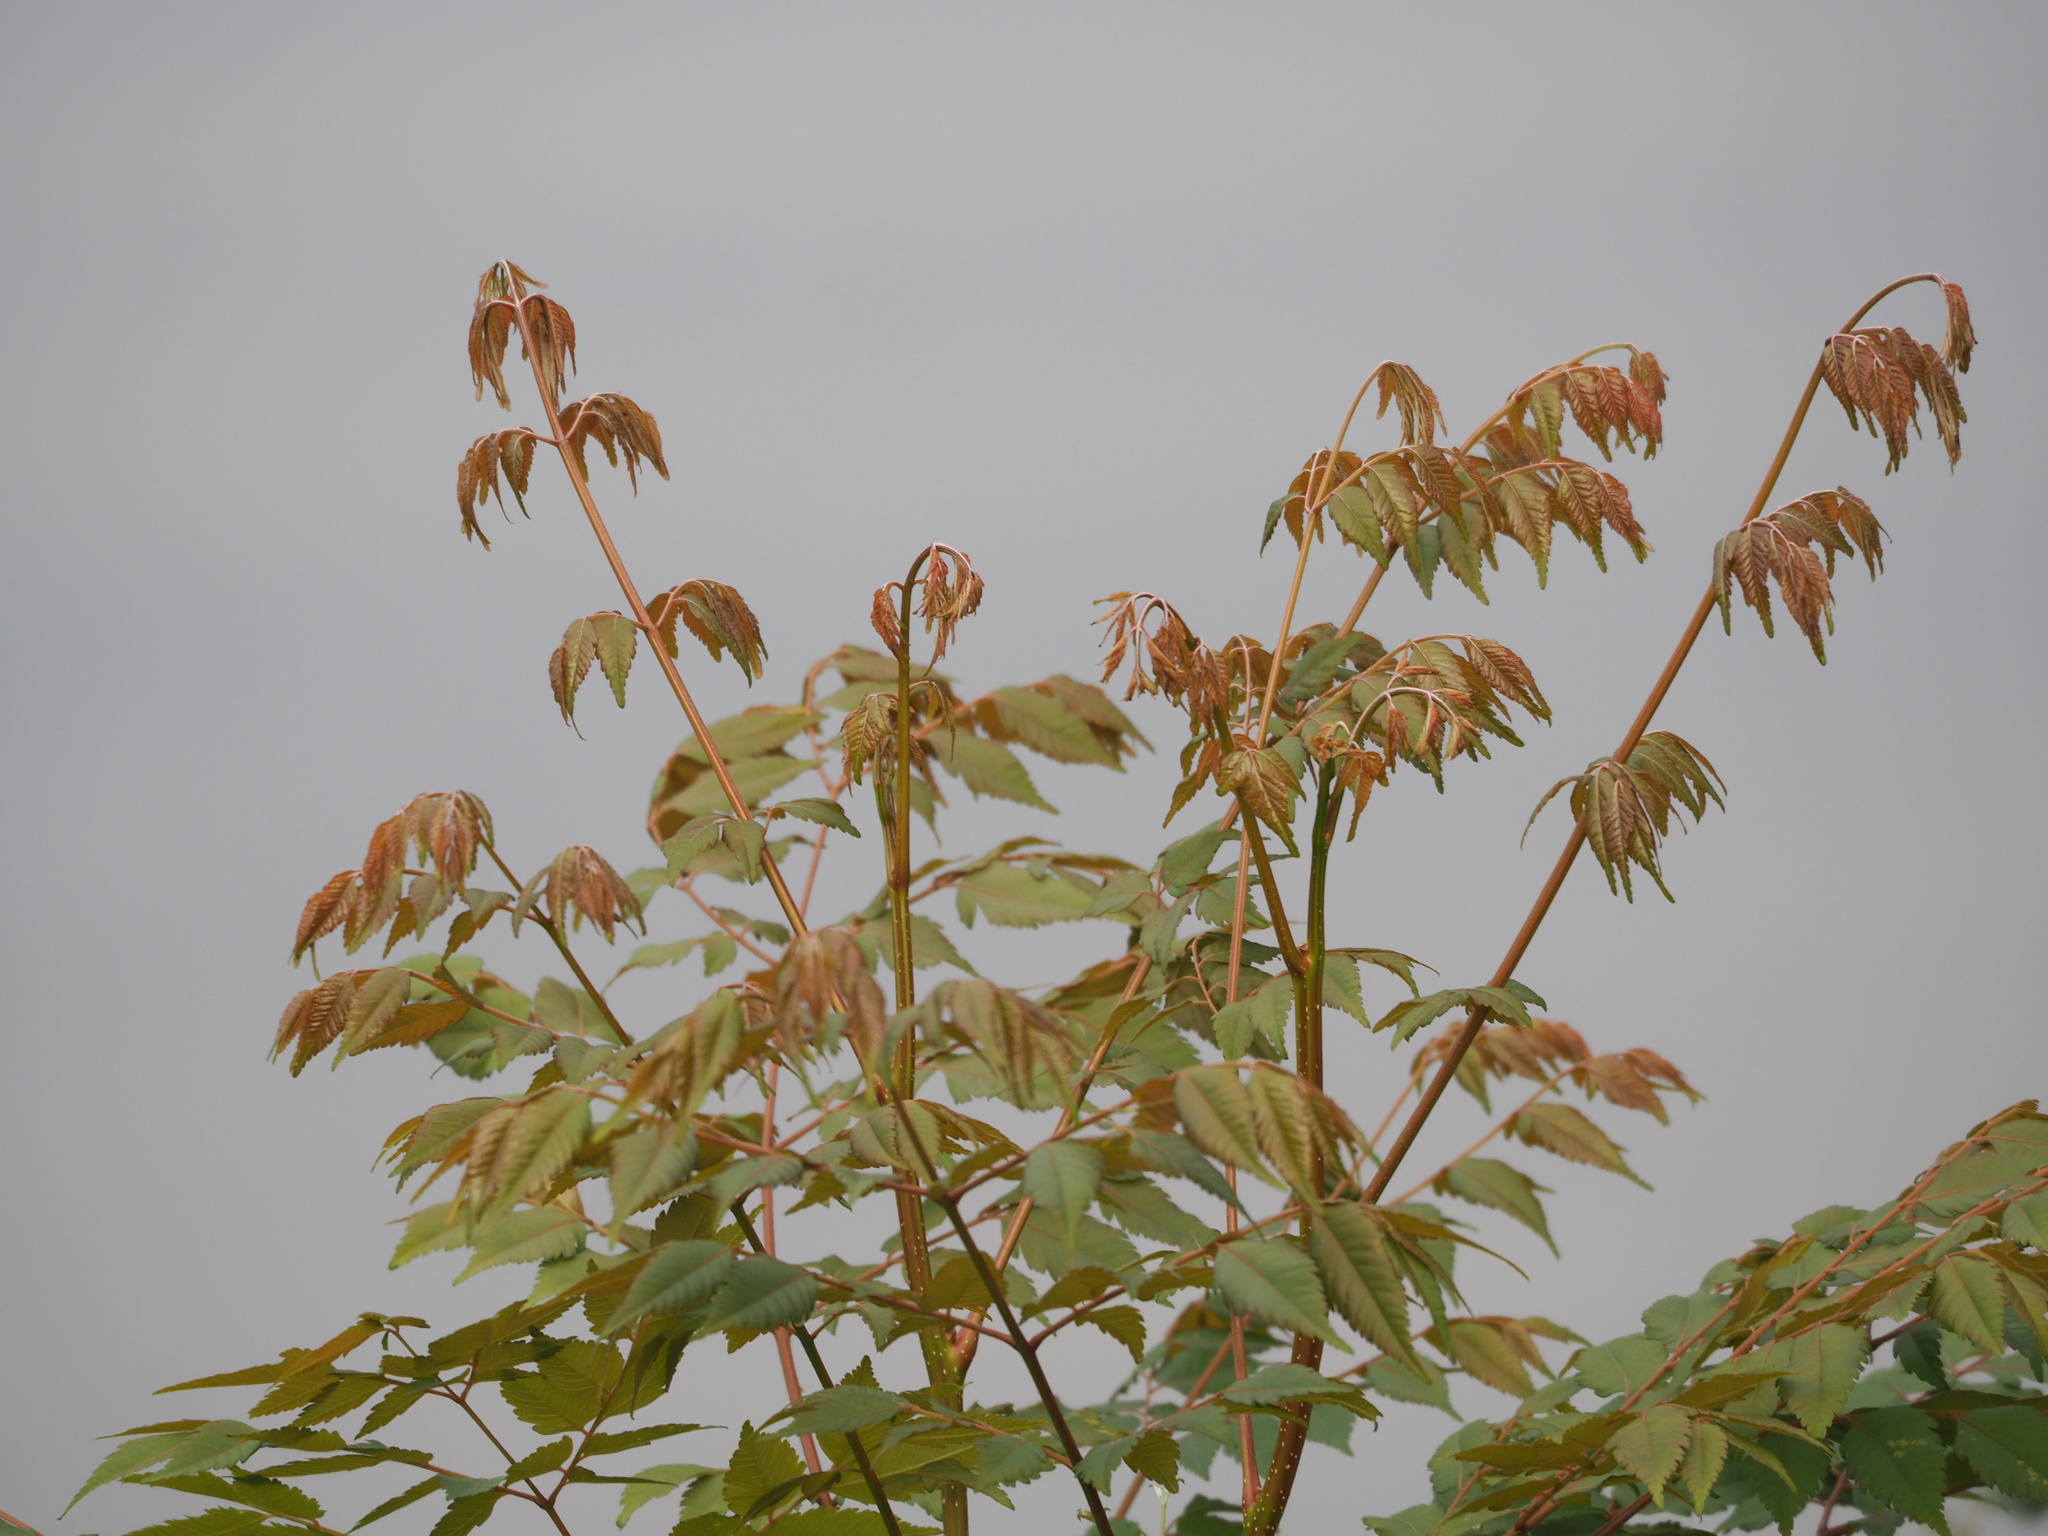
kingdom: Plantae
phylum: Tracheophyta
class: Magnoliopsida
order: Sapindales
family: Sapindaceae
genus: Koelreuteria
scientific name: Koelreuteria elegans
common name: Chinese flame tree
